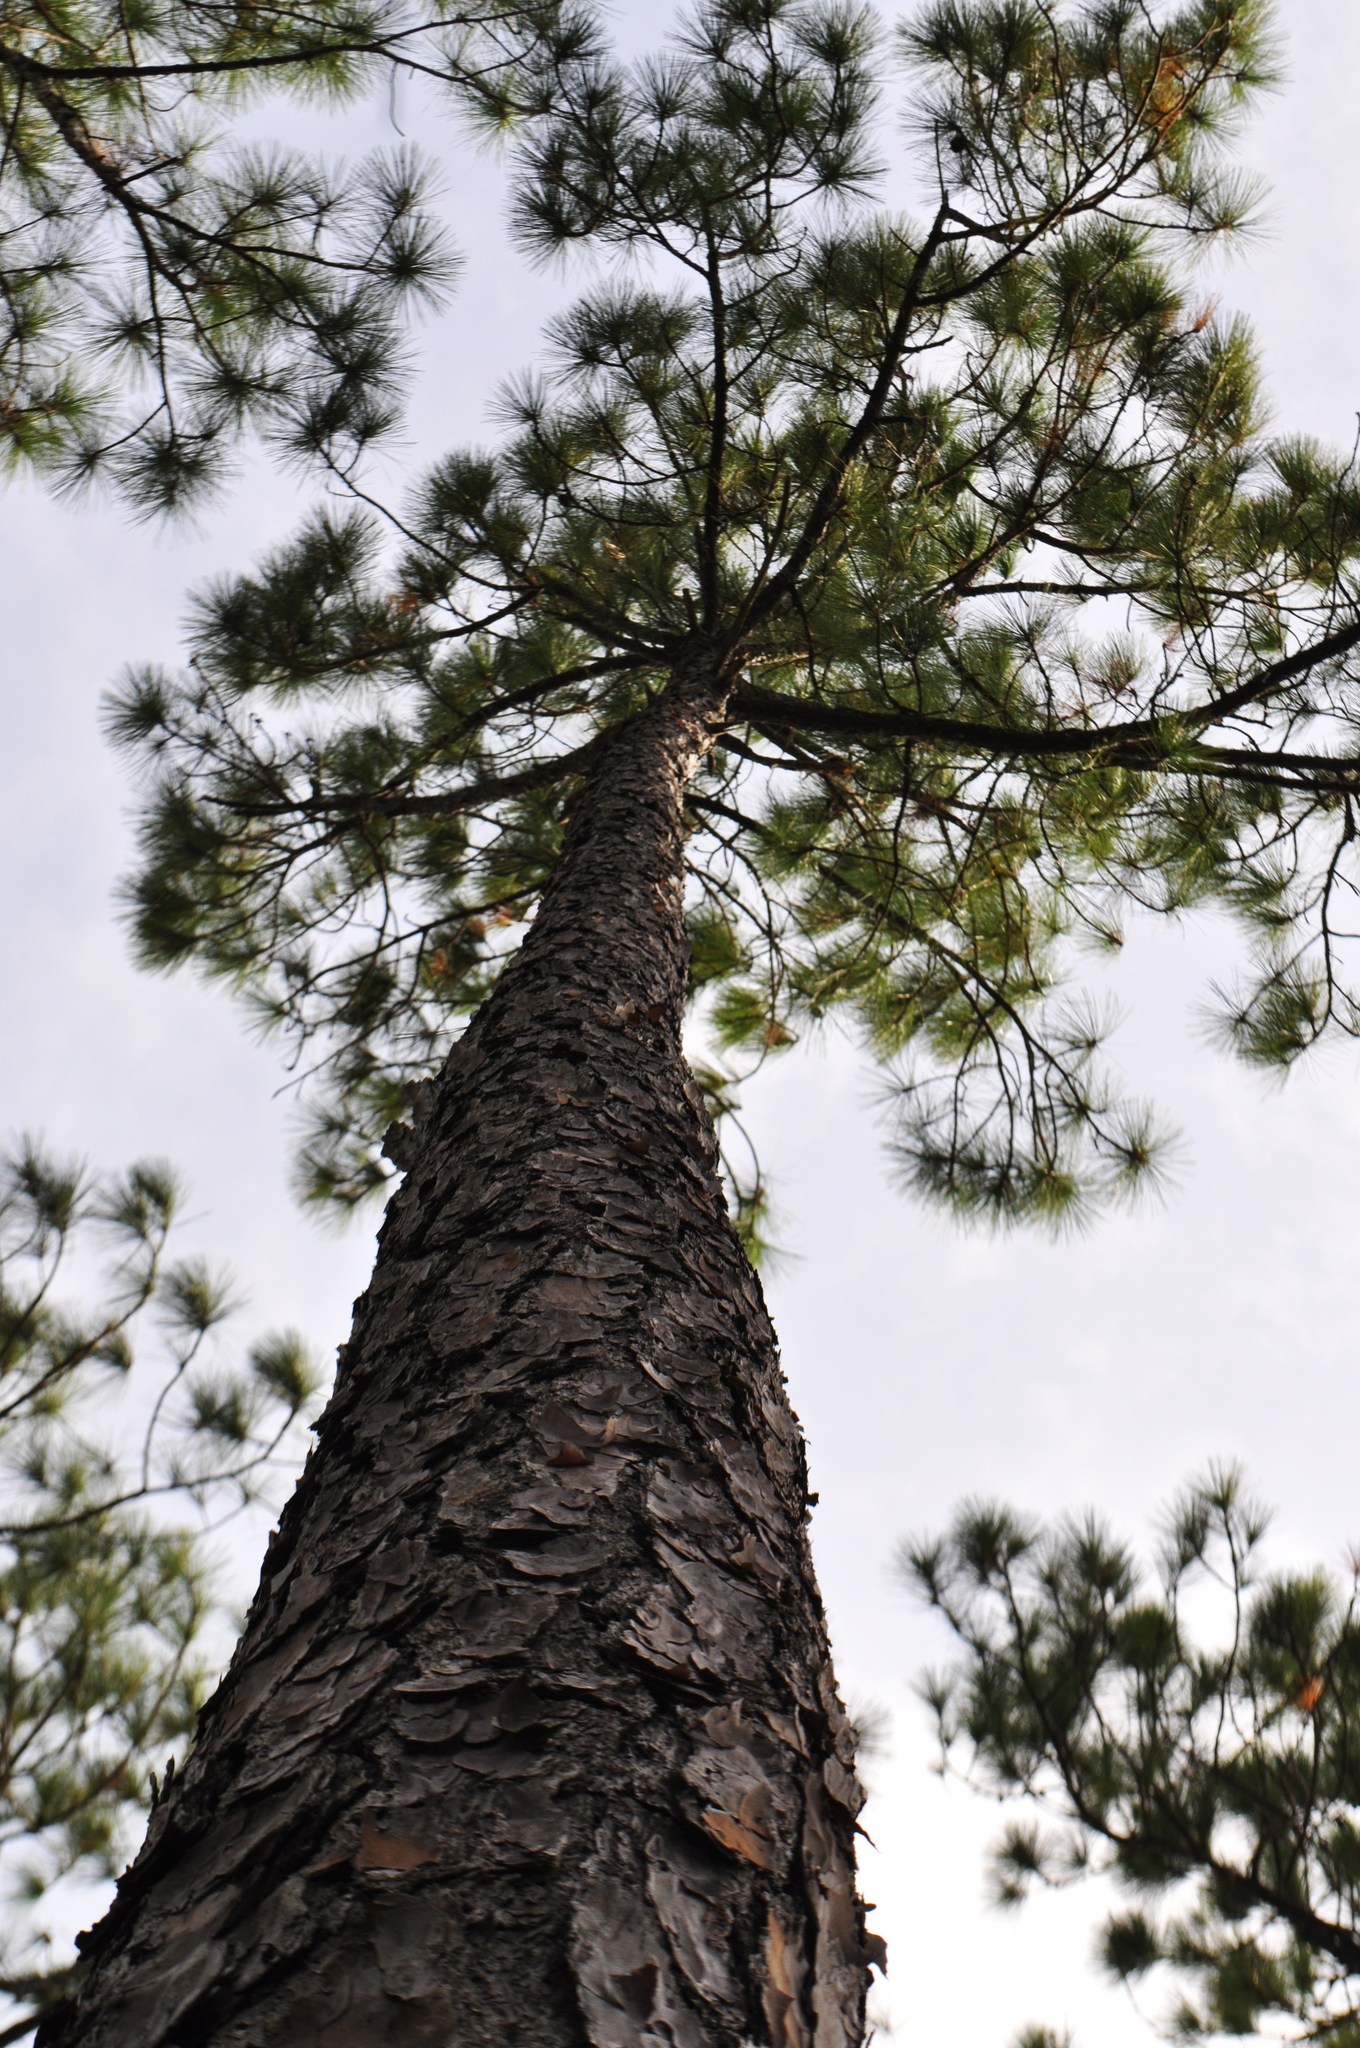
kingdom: Plantae
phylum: Tracheophyta
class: Pinopsida
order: Pinales
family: Pinaceae
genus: Pinus
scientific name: Pinus elliottii
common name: Slash pine
